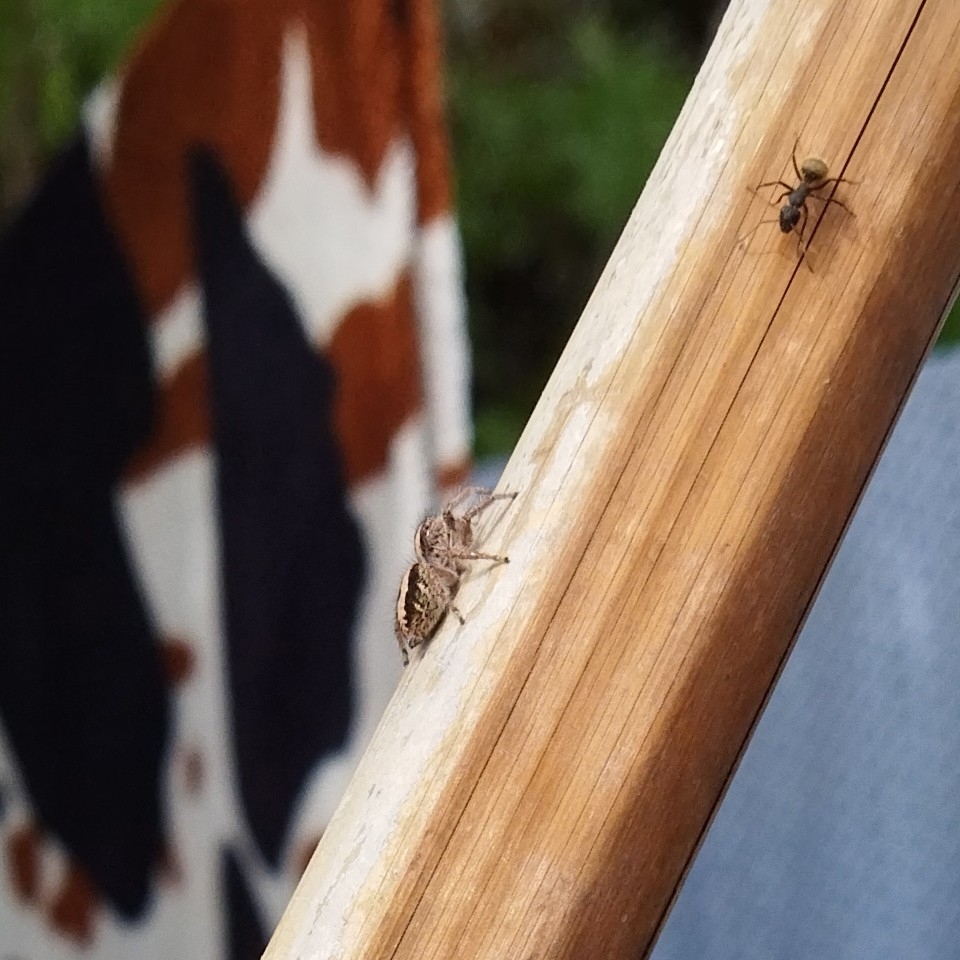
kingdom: Animalia
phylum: Arthropoda
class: Arachnida
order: Araneae
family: Salticidae
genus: Megafreya
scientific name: Megafreya sutrix
